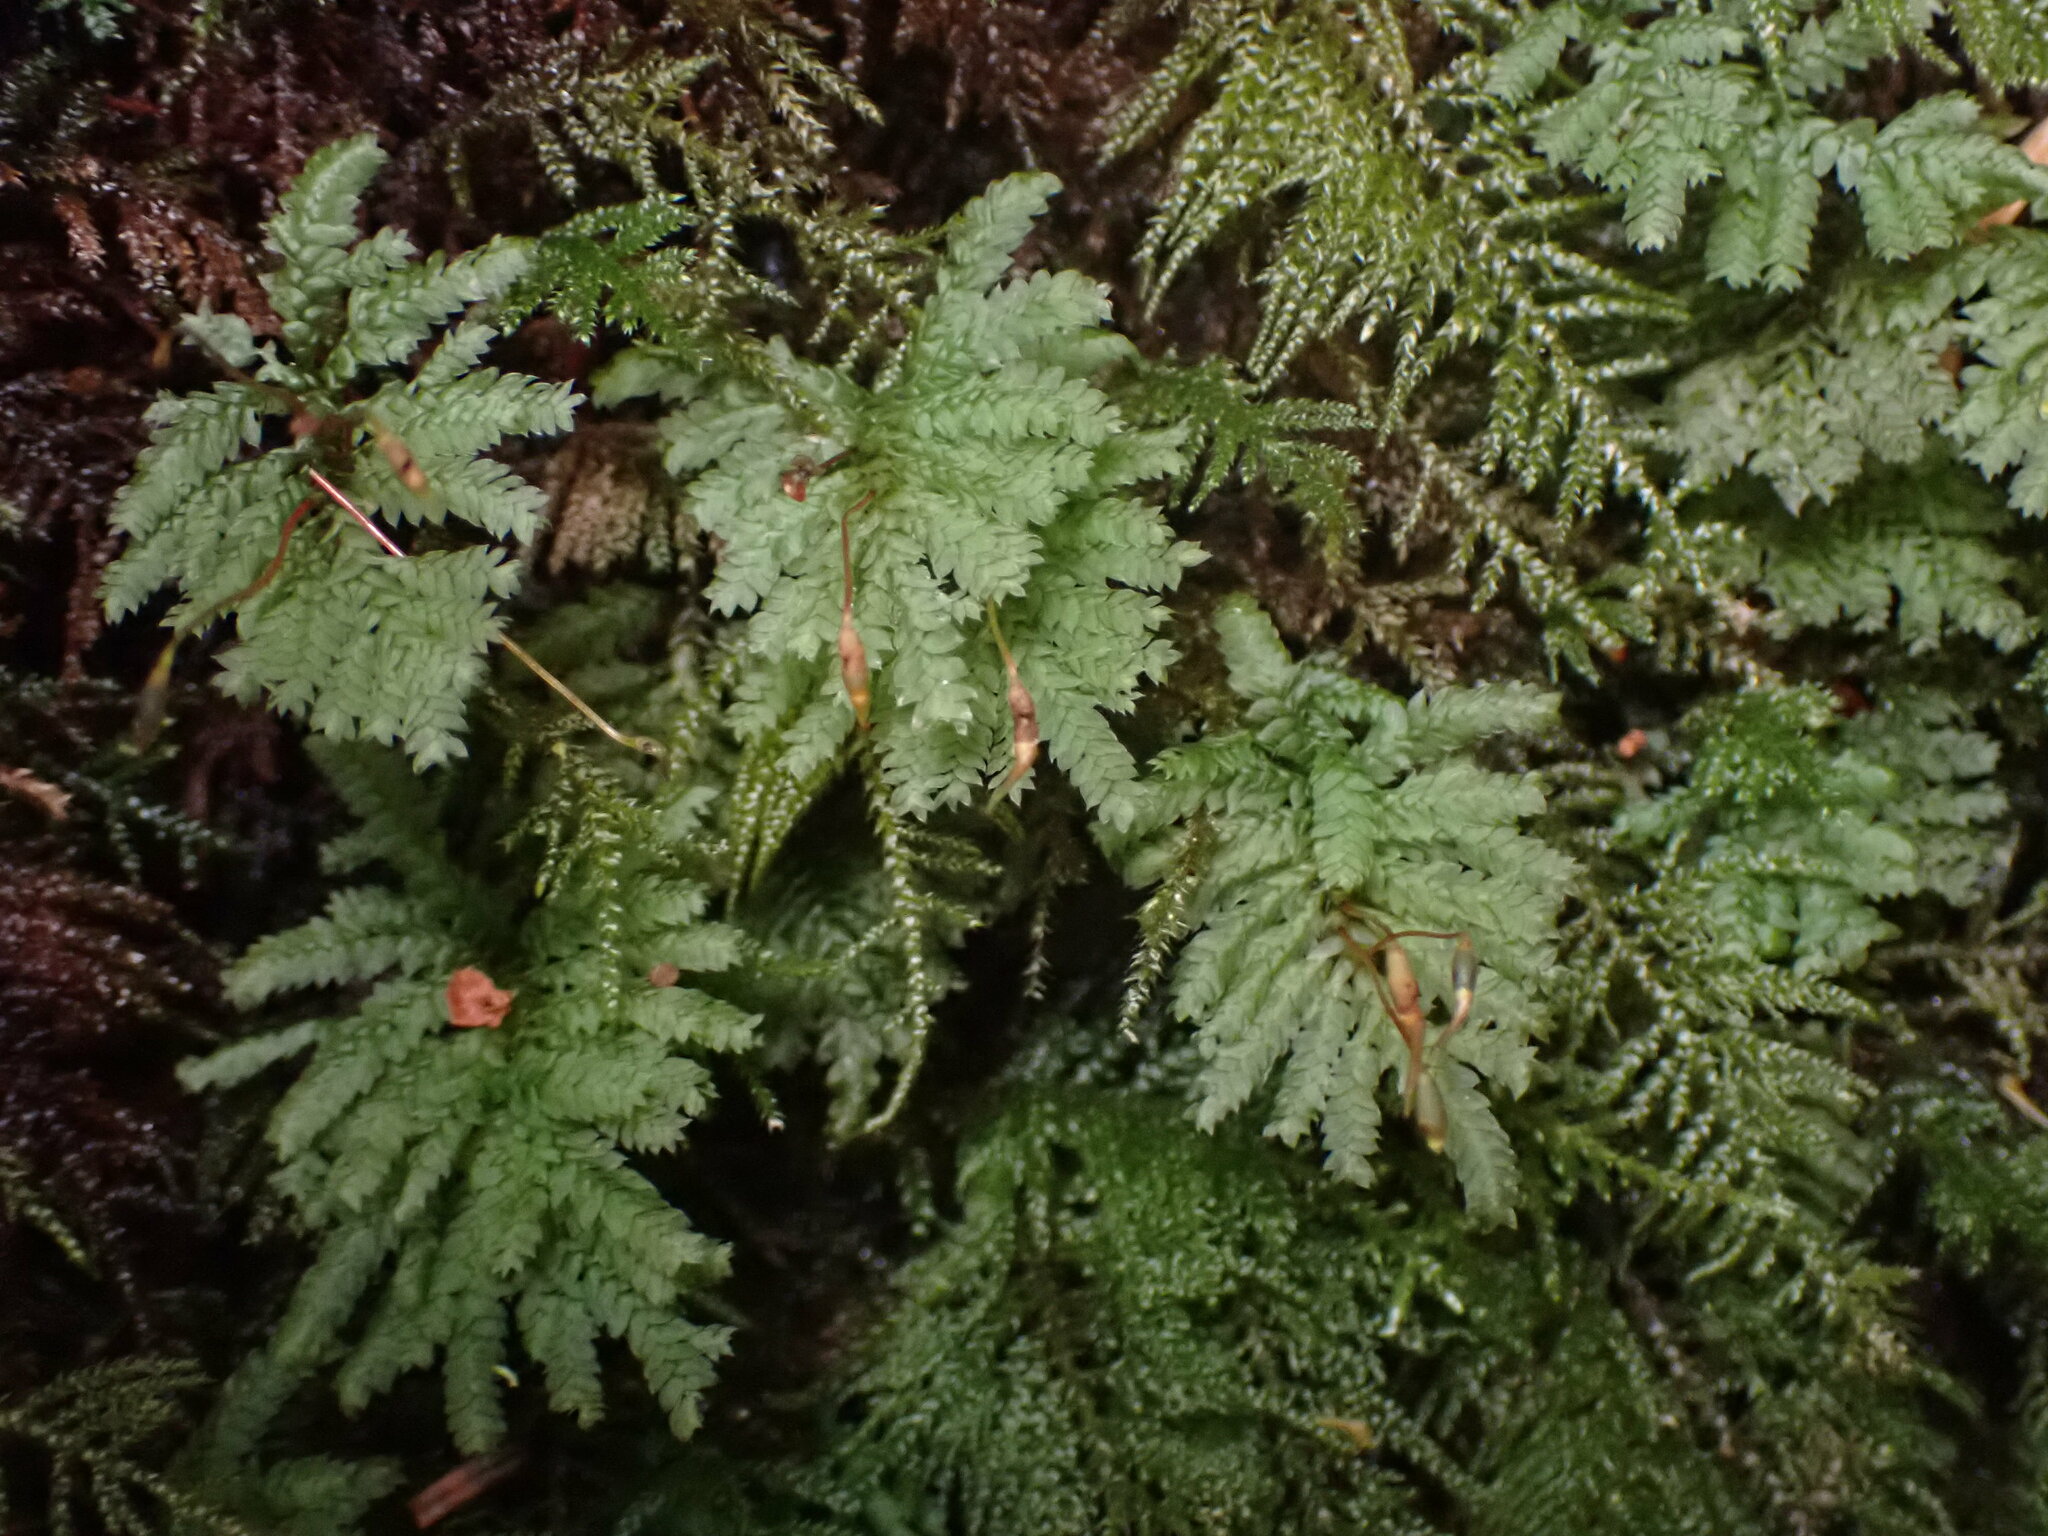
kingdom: Plantae
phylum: Bryophyta
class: Bryopsida
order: Hypopterygiales
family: Hypopterygiaceae
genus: Hypopterygium
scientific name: Hypopterygium flavolimbatum
